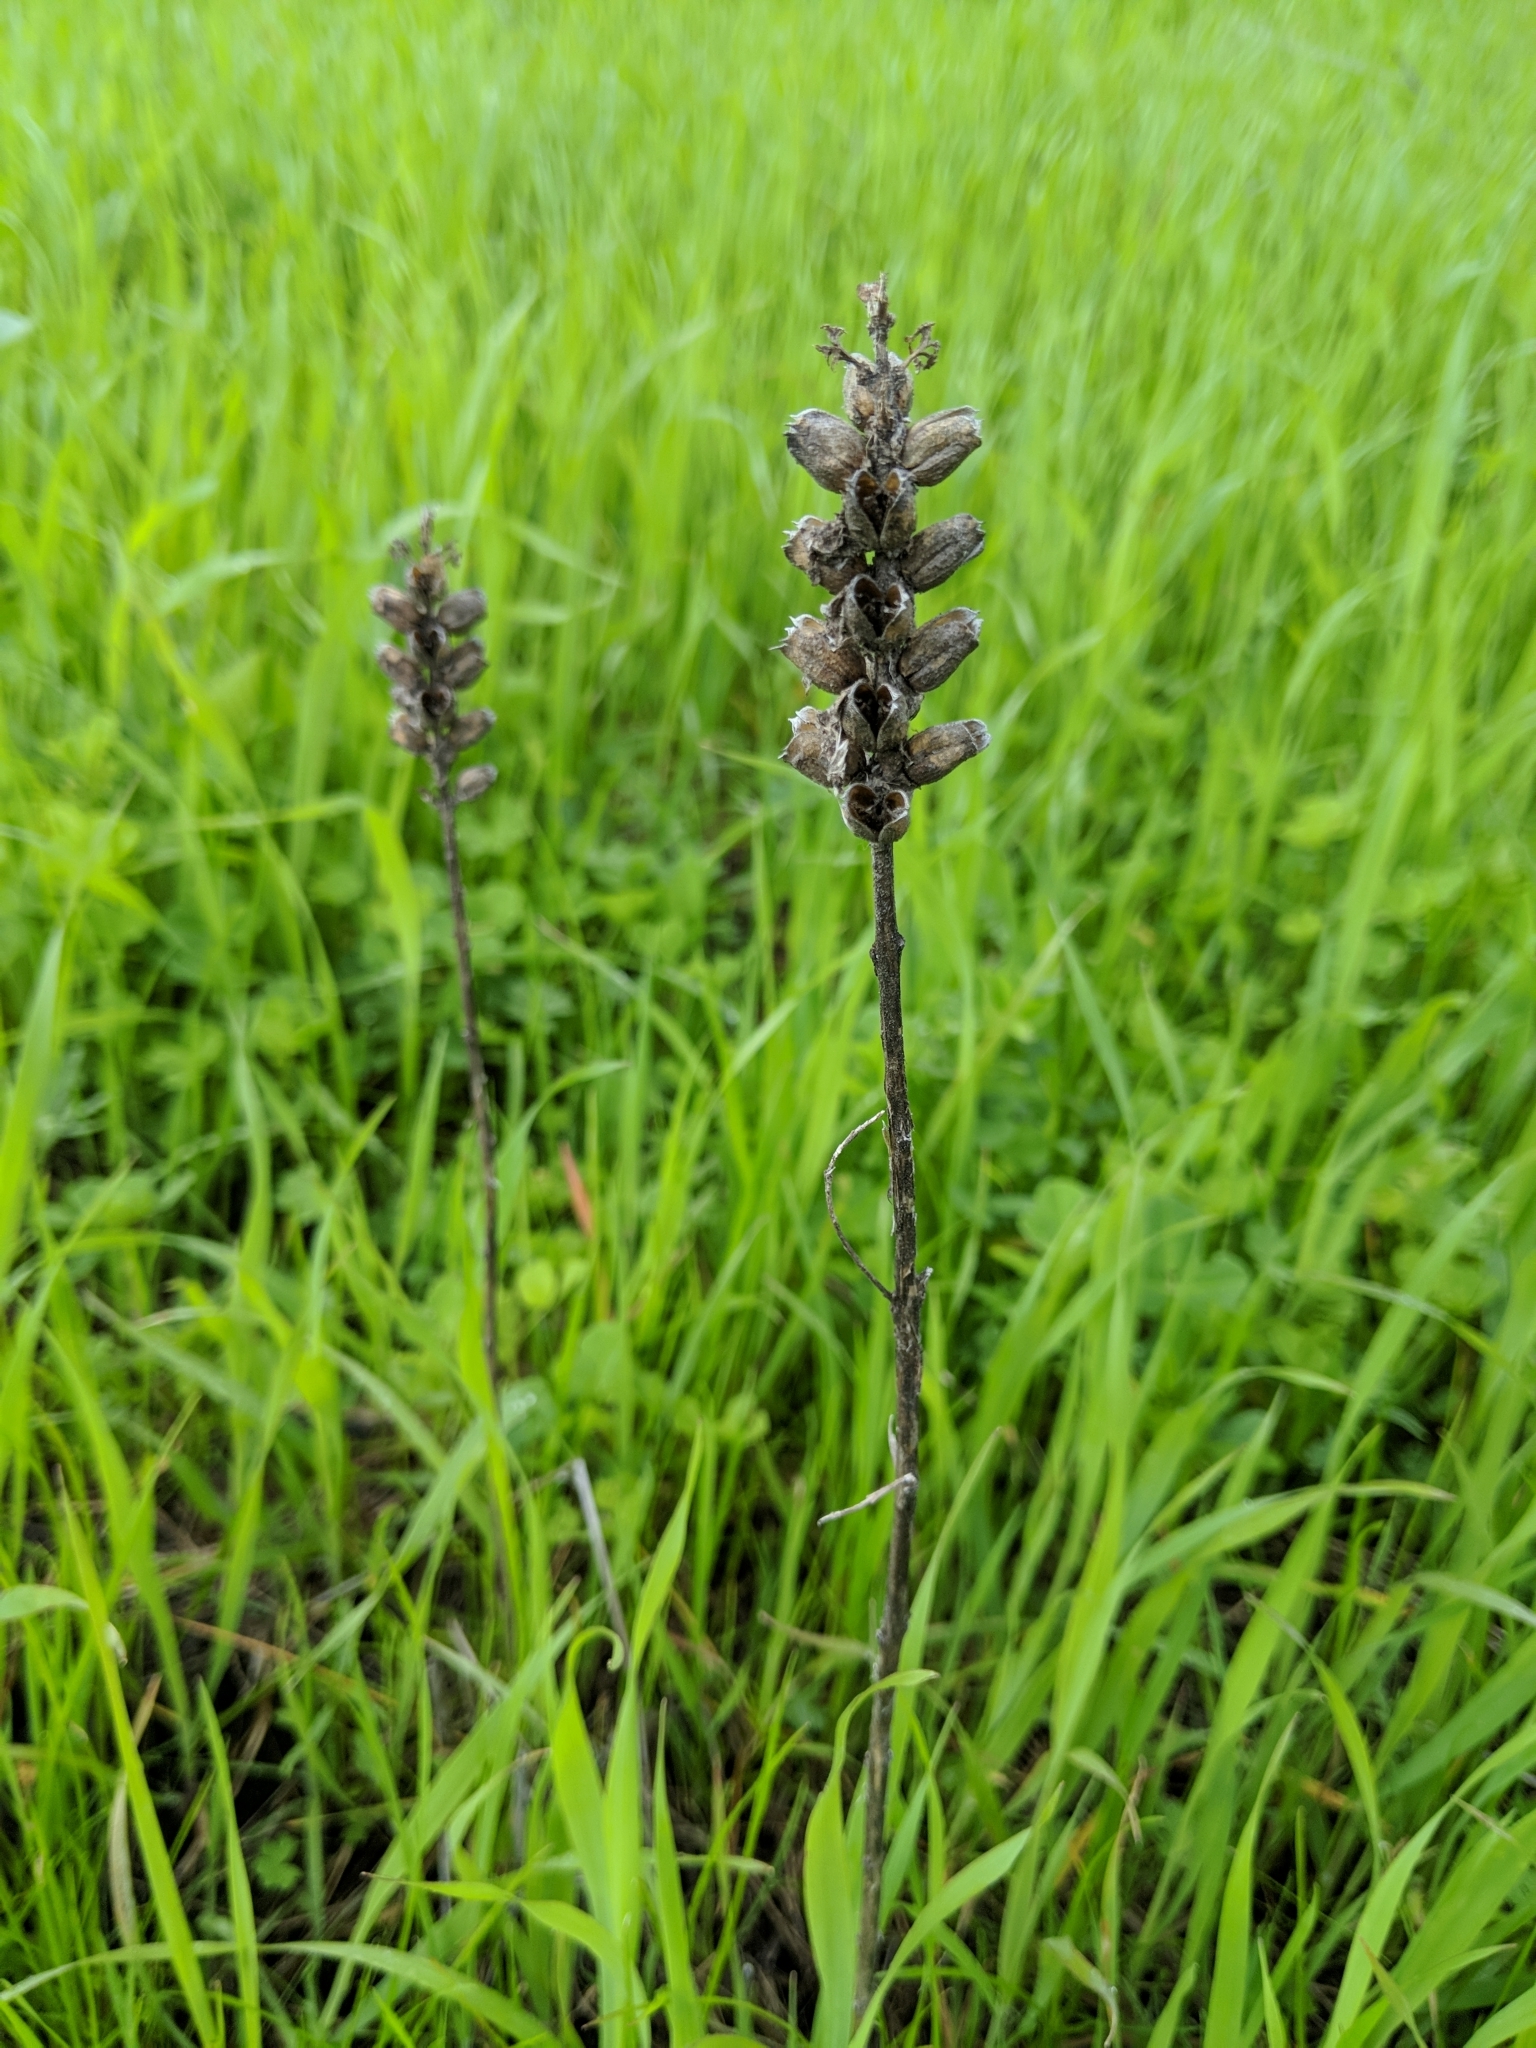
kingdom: Plantae
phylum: Tracheophyta
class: Magnoliopsida
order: Lamiales
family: Orobanchaceae
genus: Bellardia
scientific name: Bellardia trixago
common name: Mediterranean lineseed
